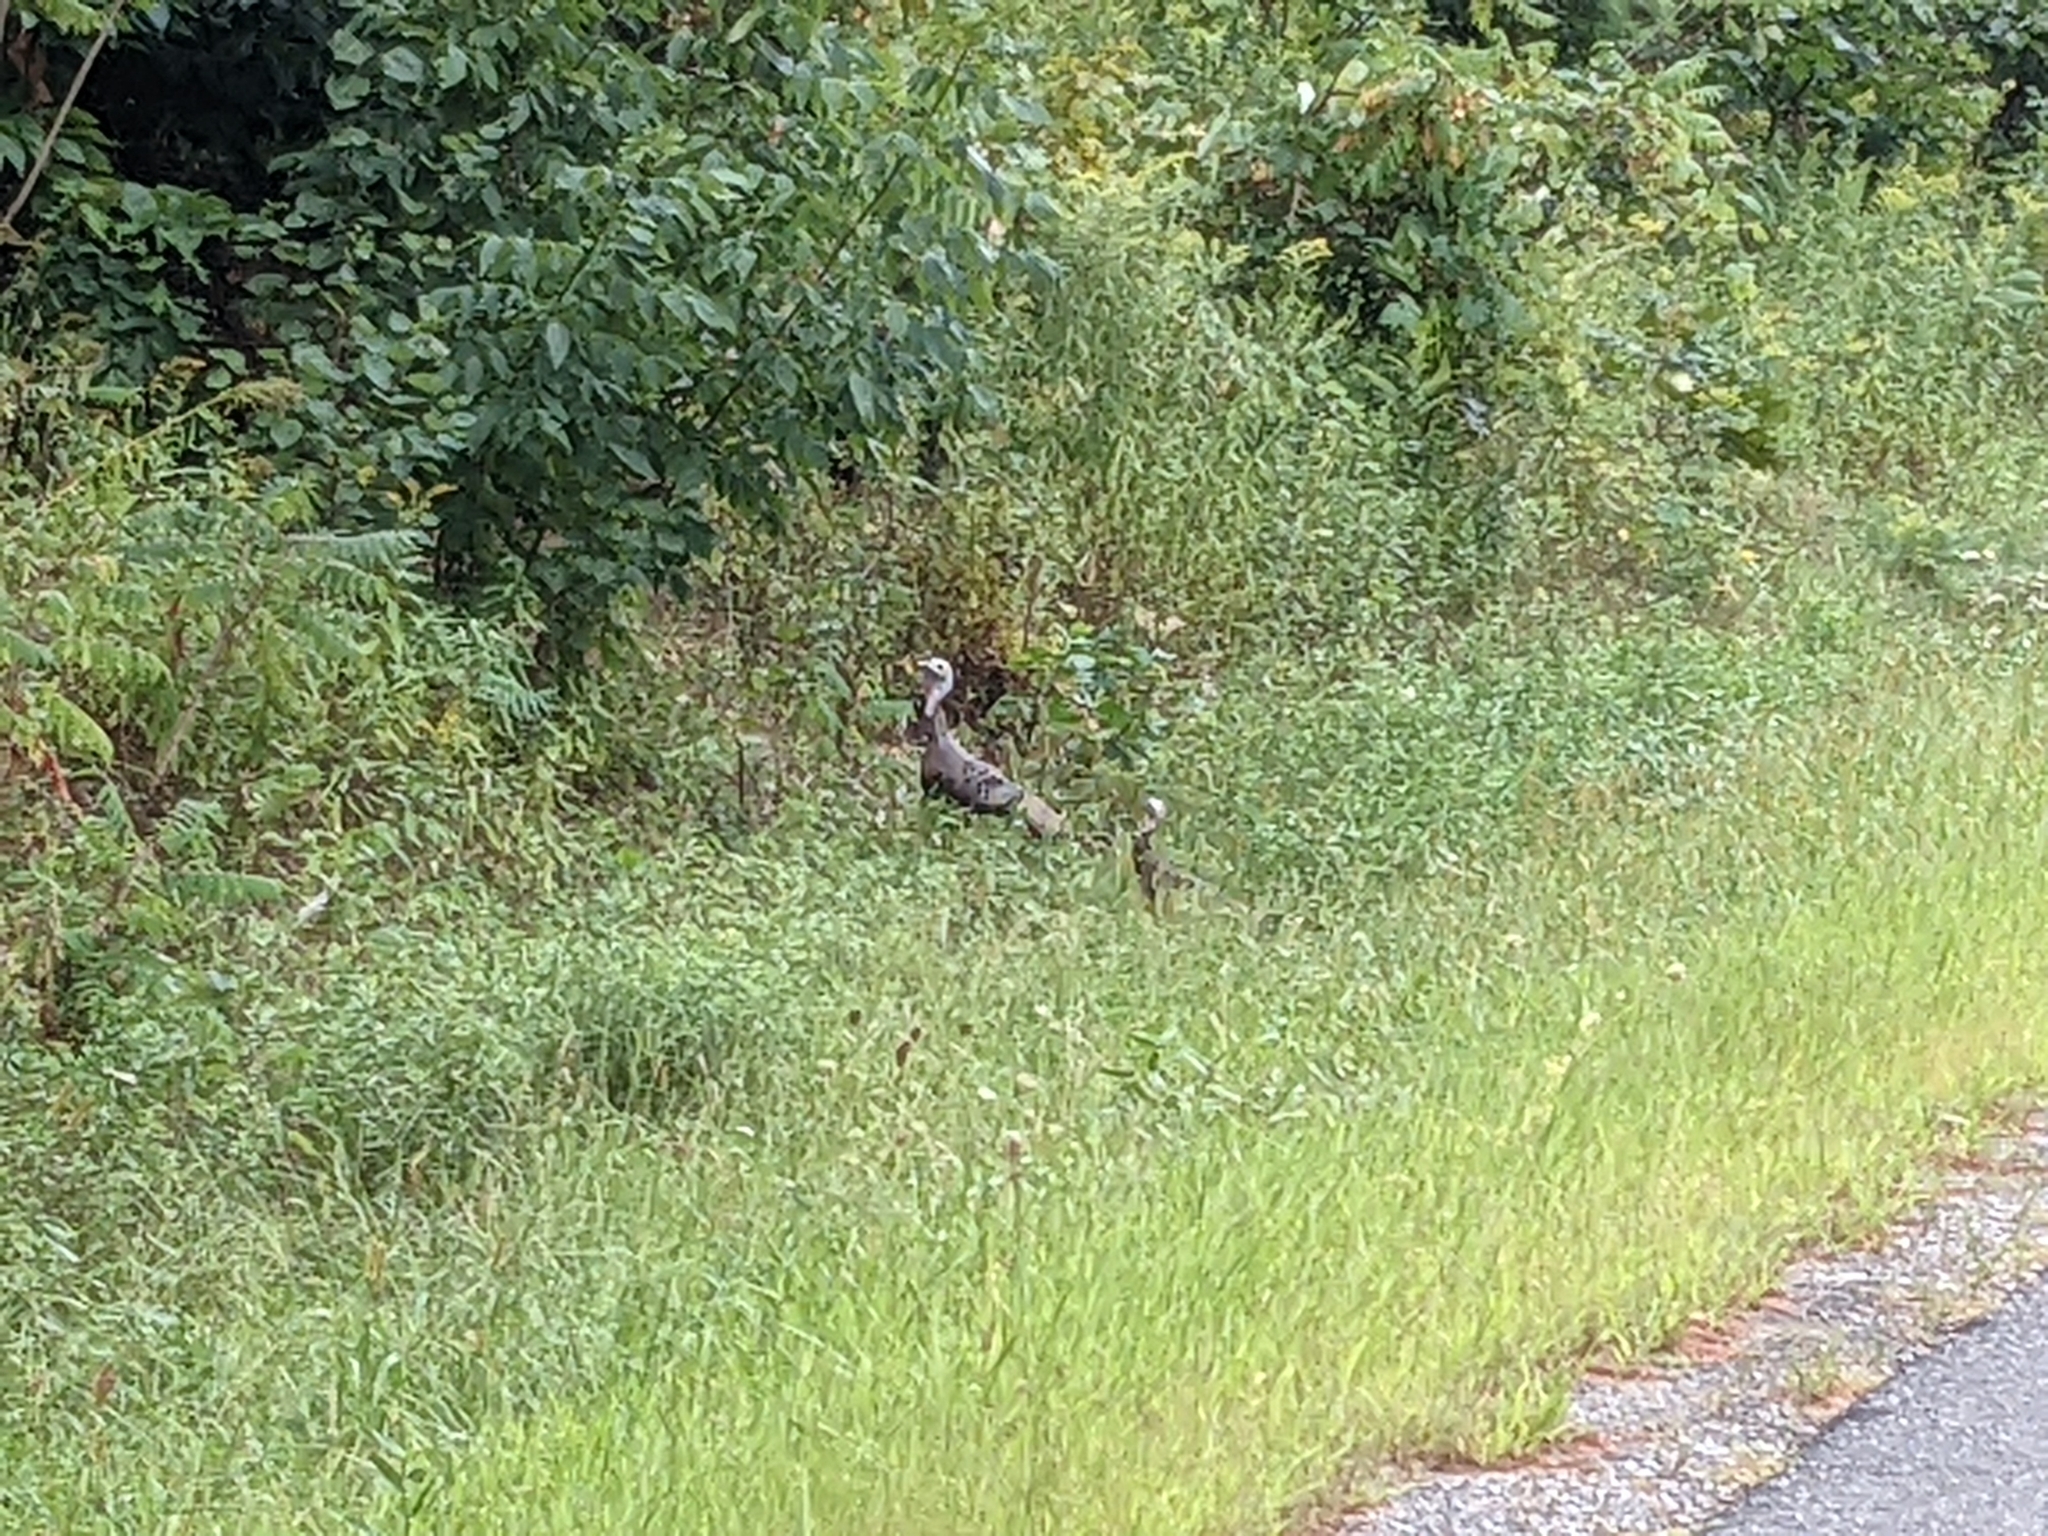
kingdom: Animalia
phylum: Chordata
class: Aves
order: Galliformes
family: Phasianidae
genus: Meleagris
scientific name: Meleagris gallopavo
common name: Wild turkey
